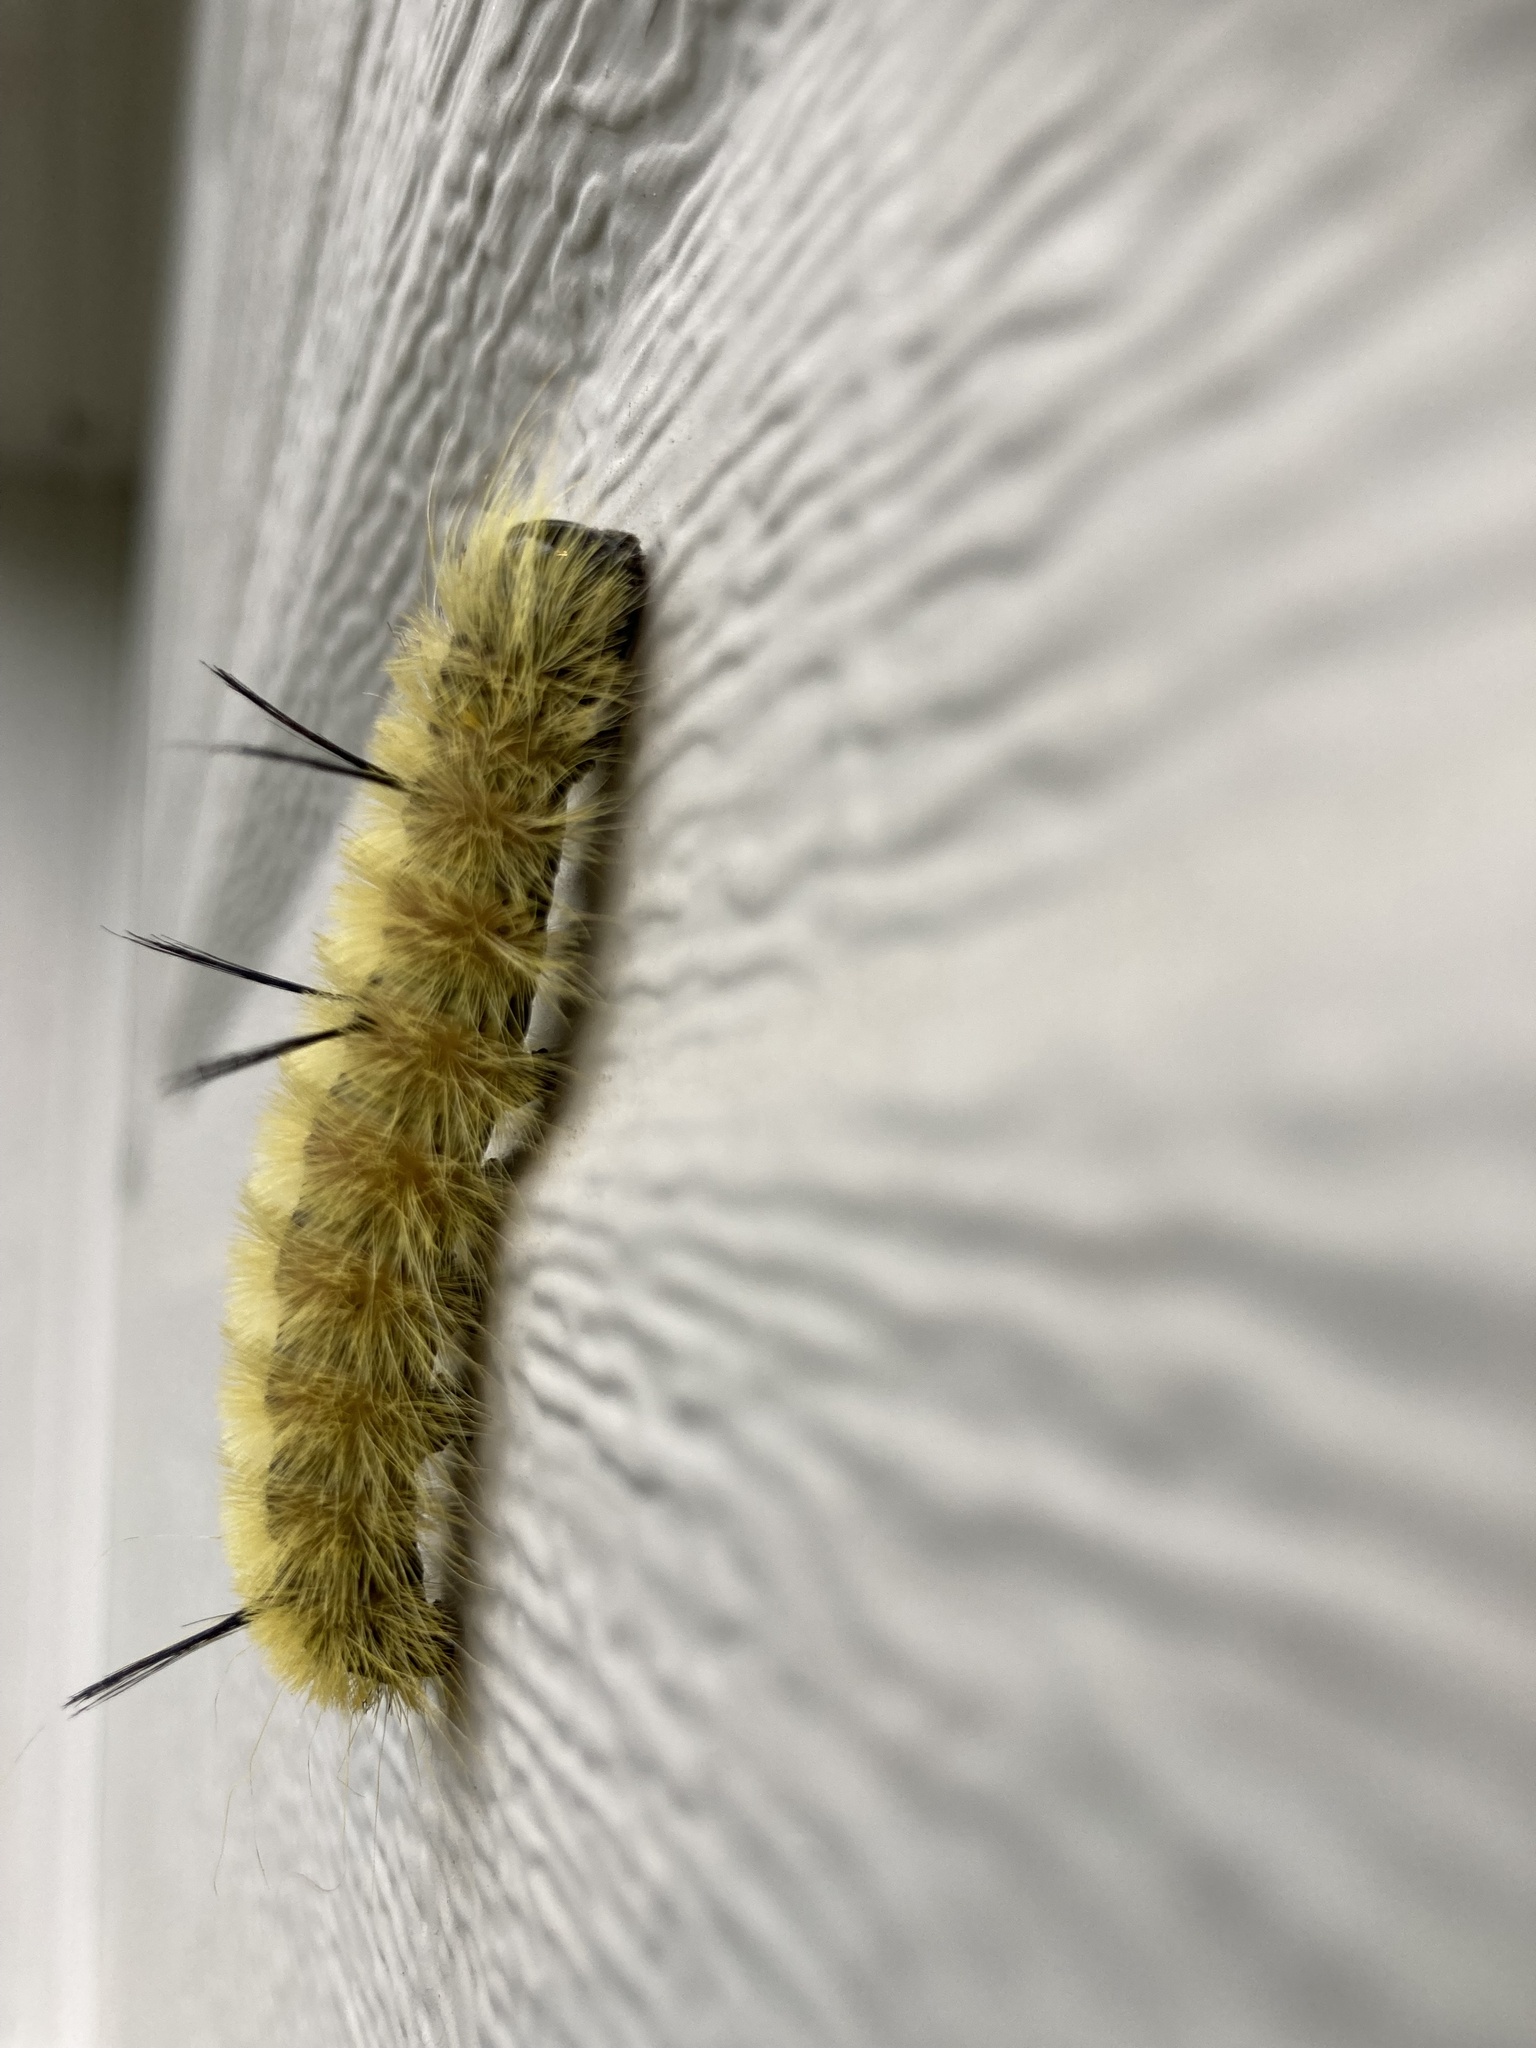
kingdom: Animalia
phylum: Arthropoda
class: Insecta
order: Lepidoptera
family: Noctuidae
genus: Acronicta
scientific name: Acronicta americana
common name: American dagger
